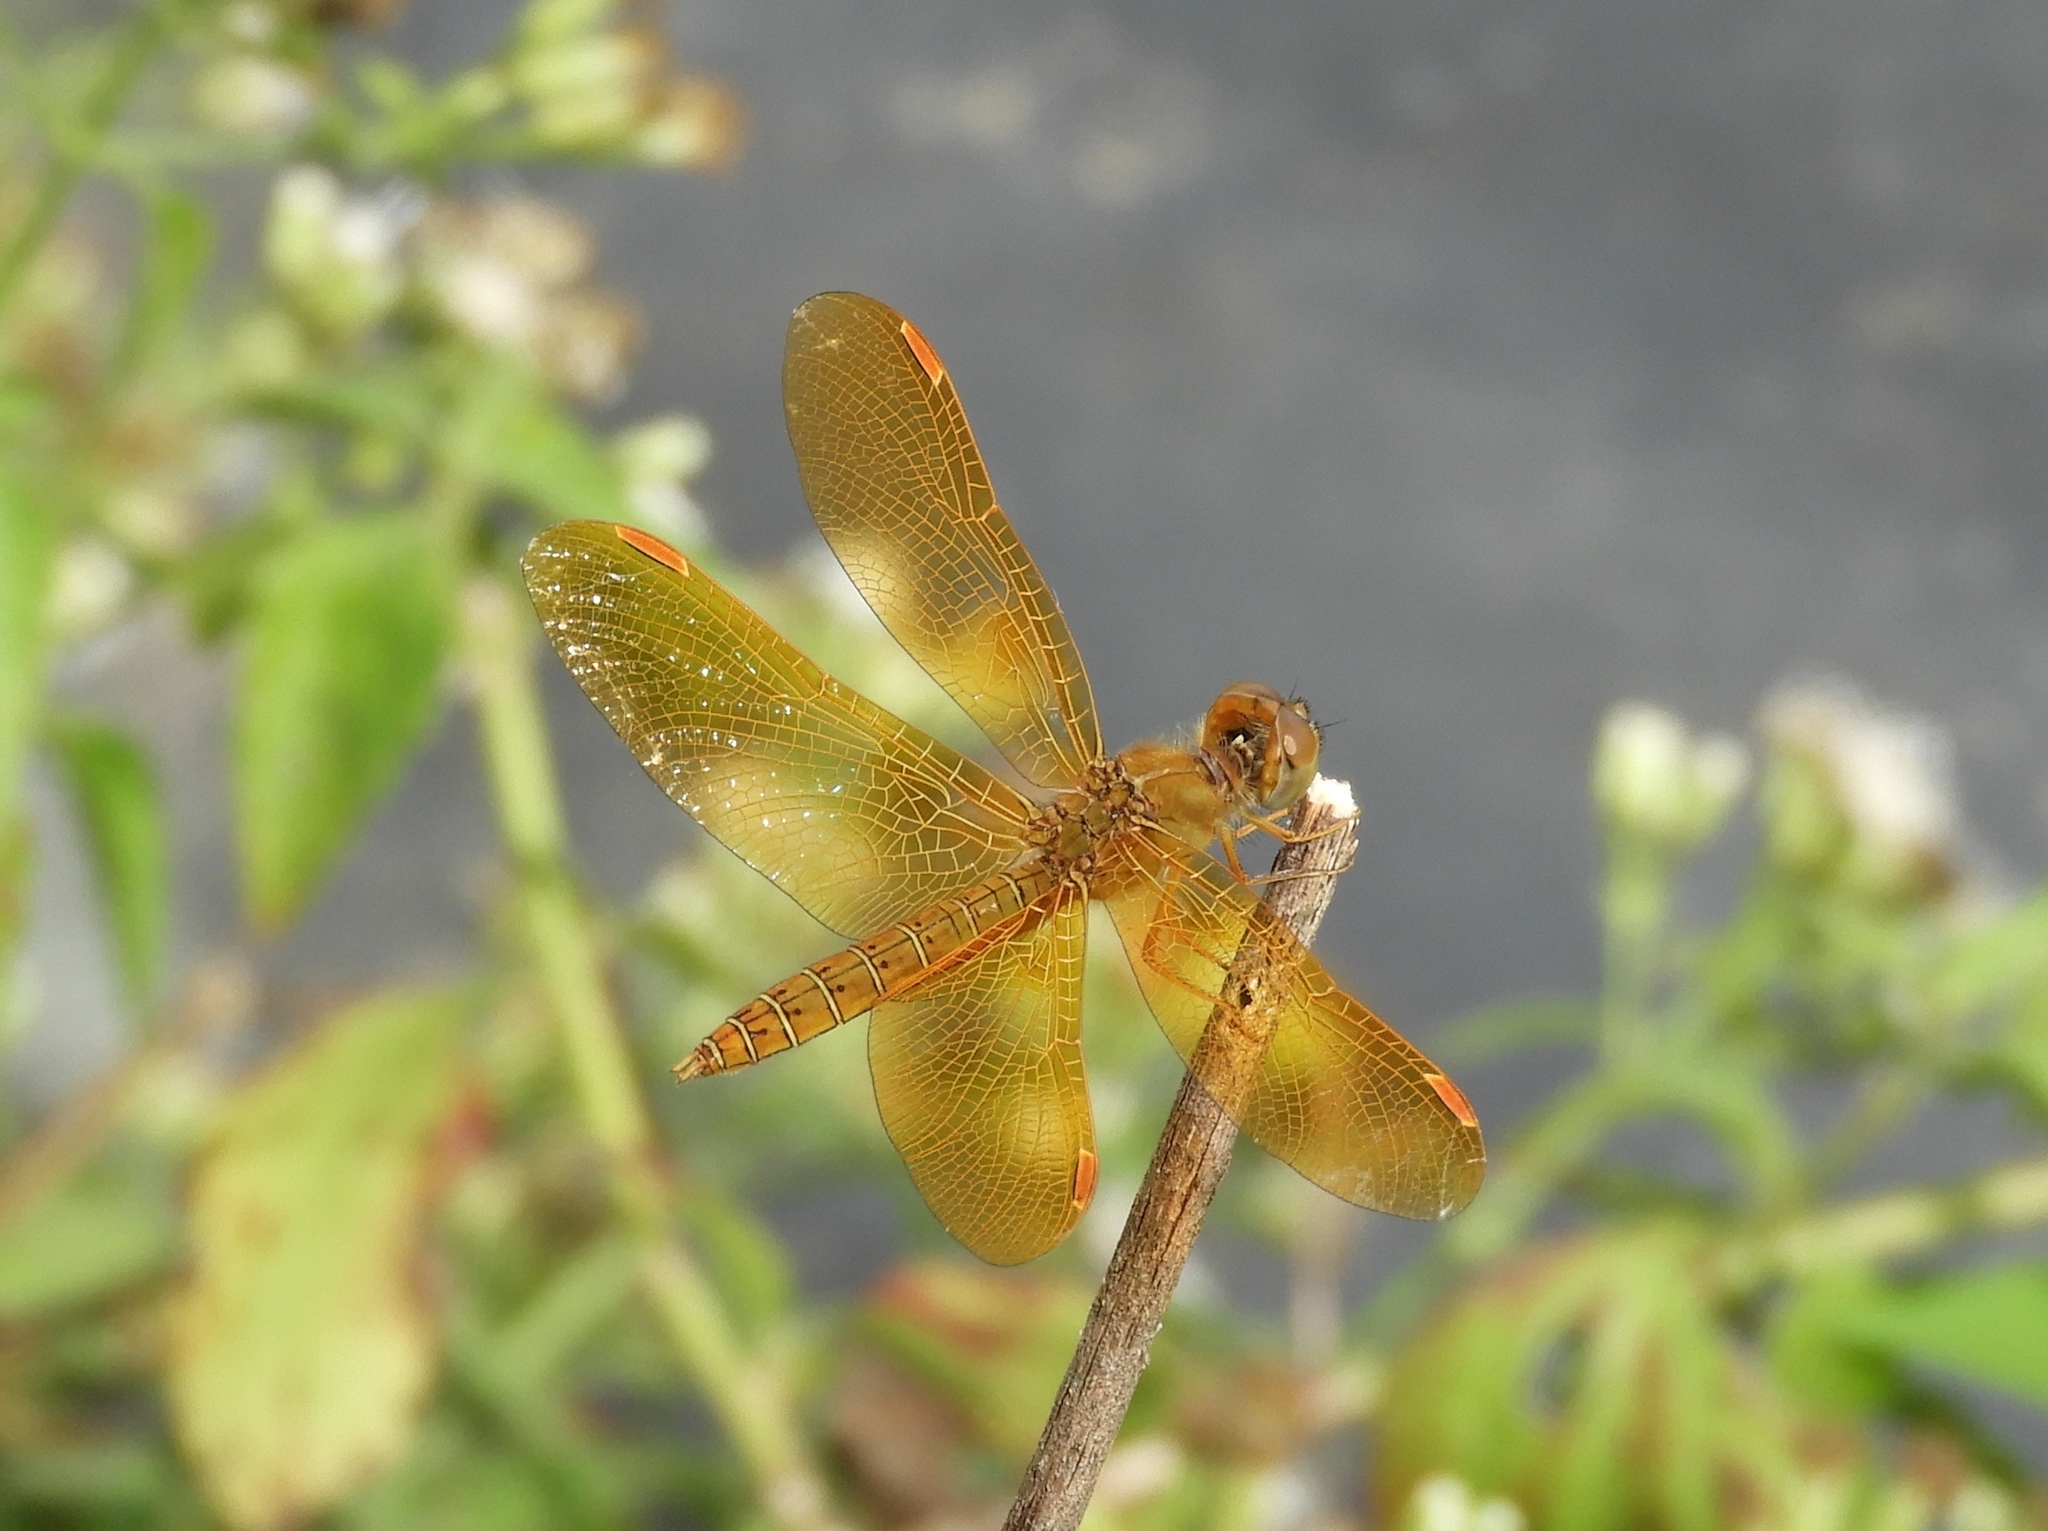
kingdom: Animalia
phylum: Arthropoda
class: Insecta
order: Odonata
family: Libellulidae
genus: Perithemis
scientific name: Perithemis intensa
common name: Mexican amberwing
